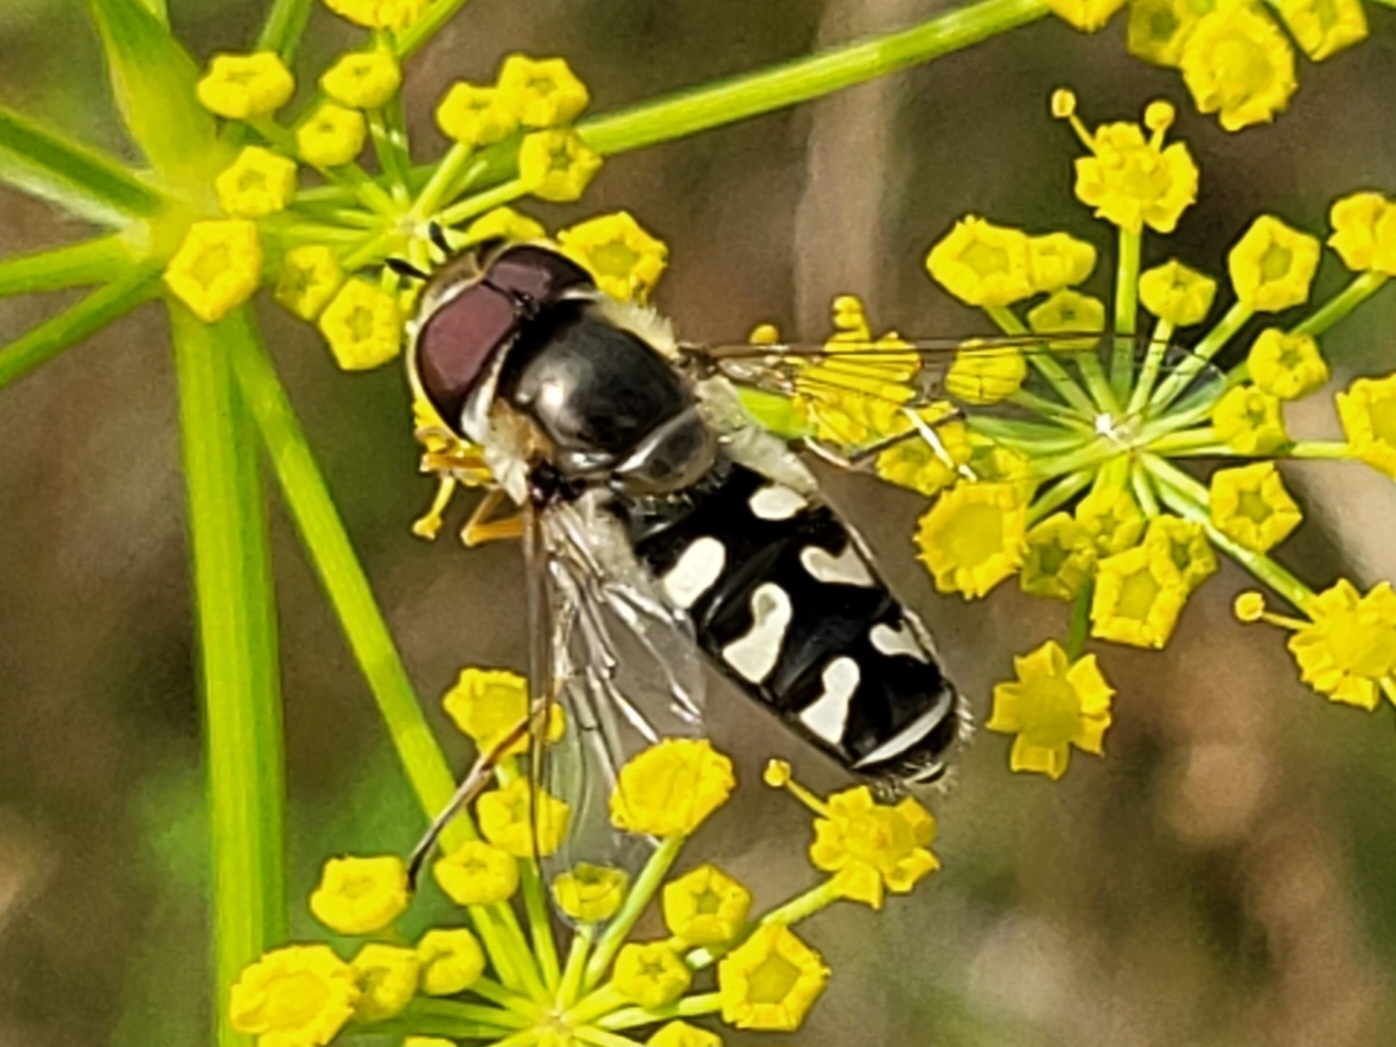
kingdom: Animalia
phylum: Arthropoda
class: Insecta
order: Diptera
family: Syrphidae
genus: Scaeva
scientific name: Scaeva pyrastri
